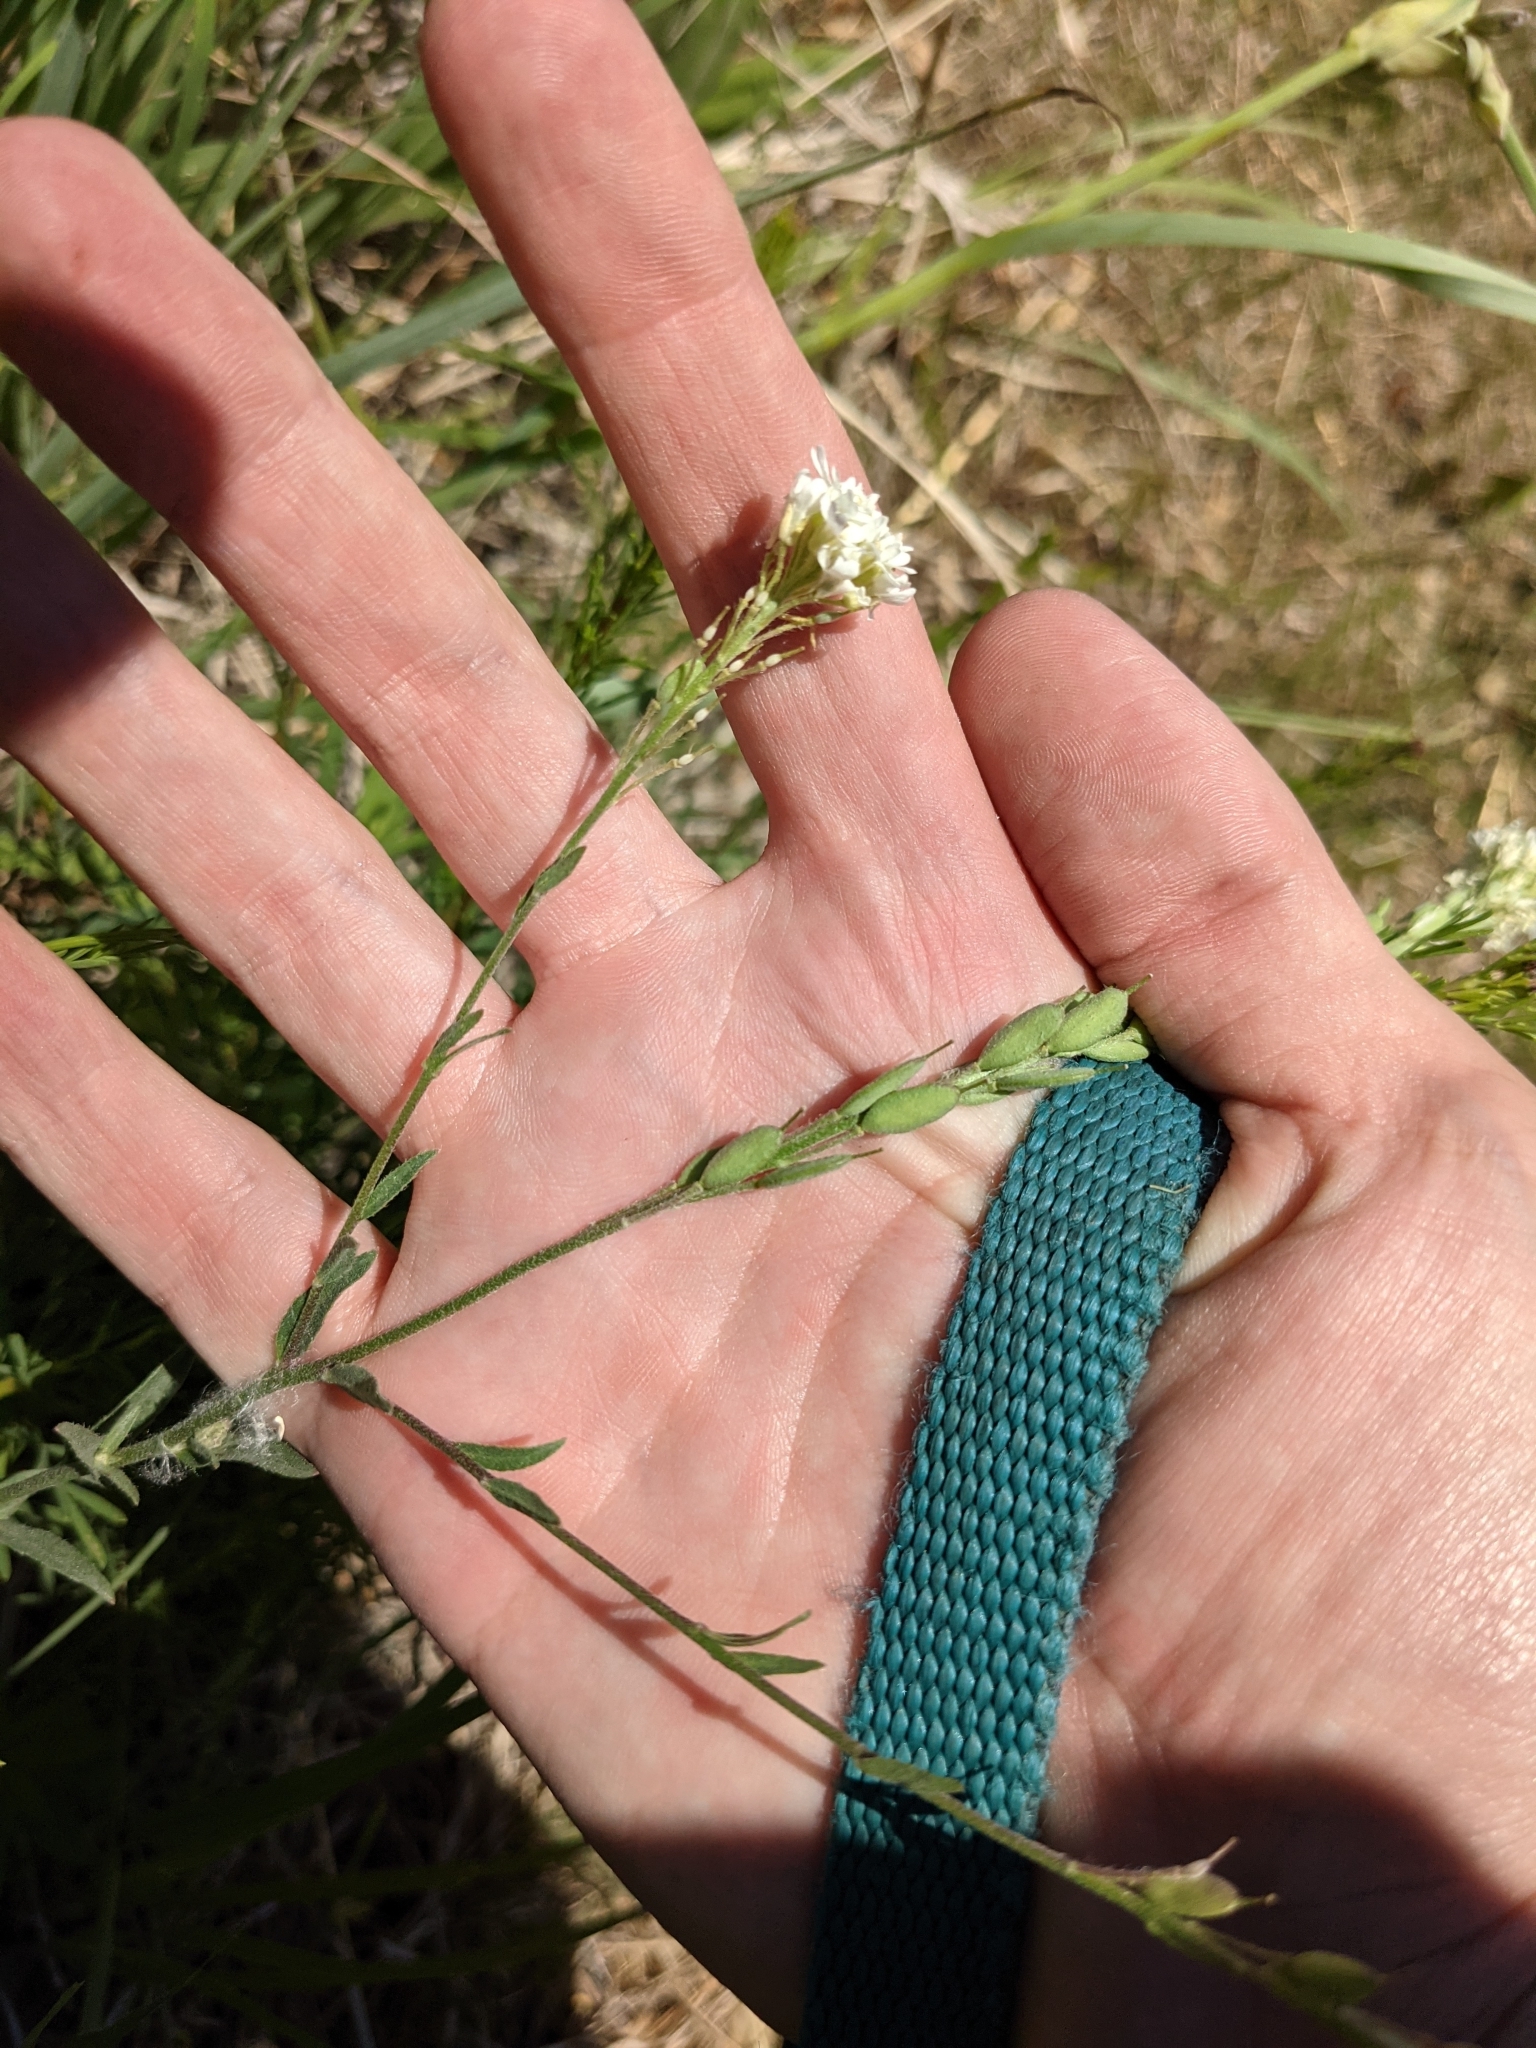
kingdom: Plantae
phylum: Tracheophyta
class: Magnoliopsida
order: Brassicales
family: Brassicaceae
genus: Berteroa
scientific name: Berteroa incana
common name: Hoary alison
